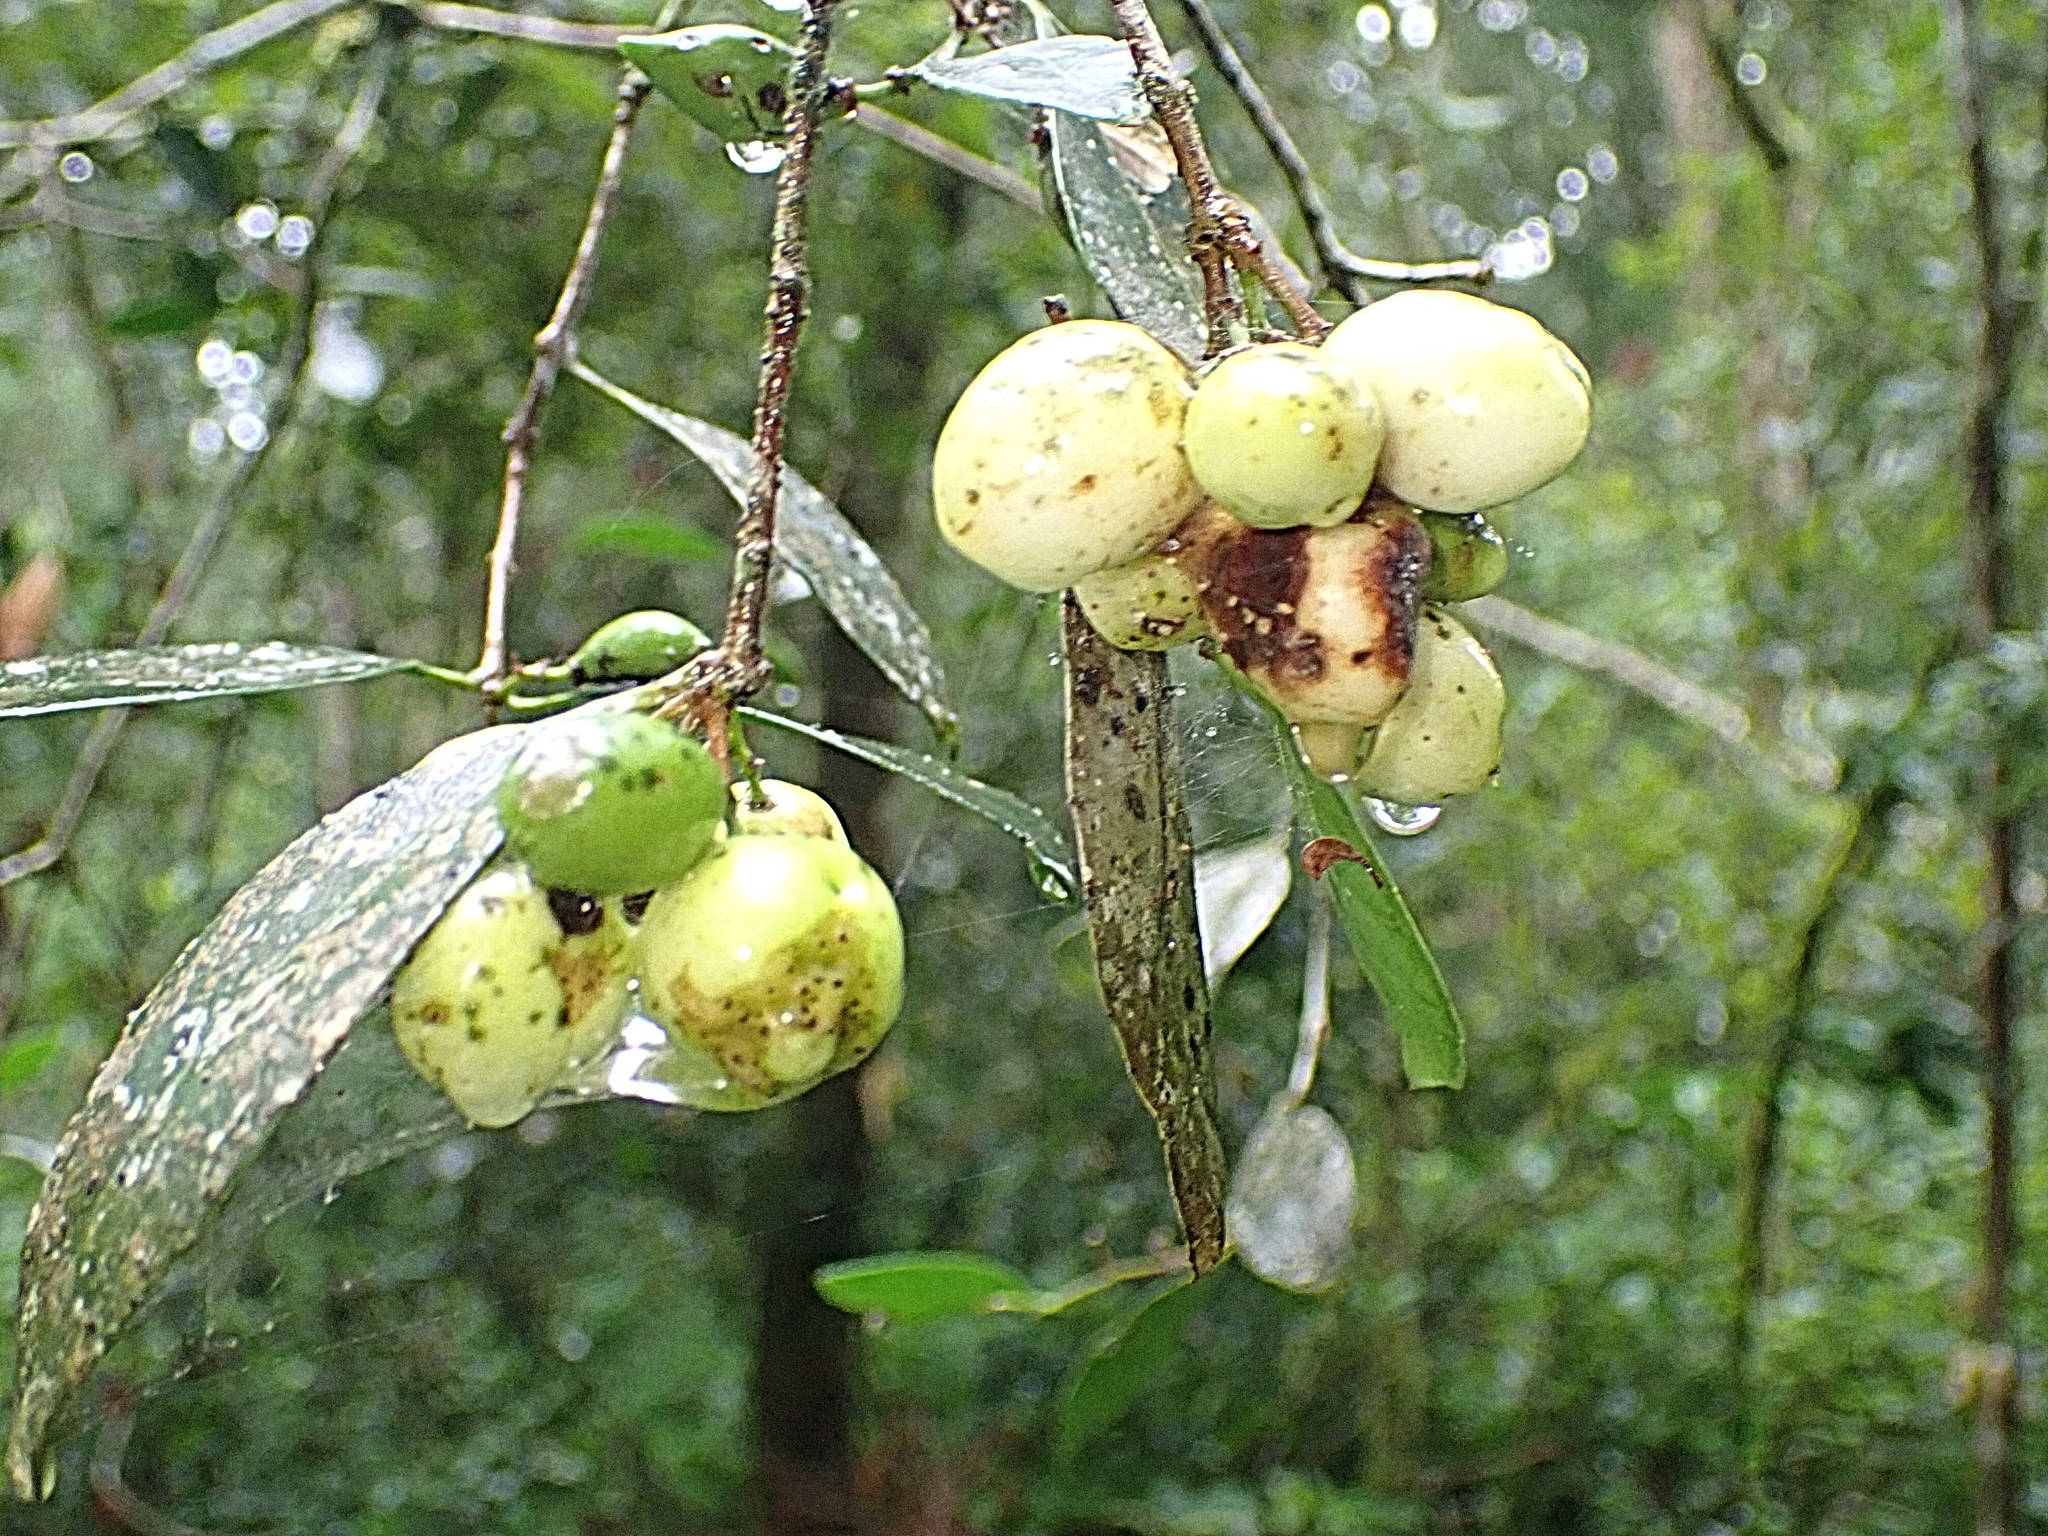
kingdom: Plantae
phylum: Tracheophyta
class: Magnoliopsida
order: Celastrales
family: Celastraceae
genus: Elaeodendron
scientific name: Elaeodendron croceum
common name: Saffron
